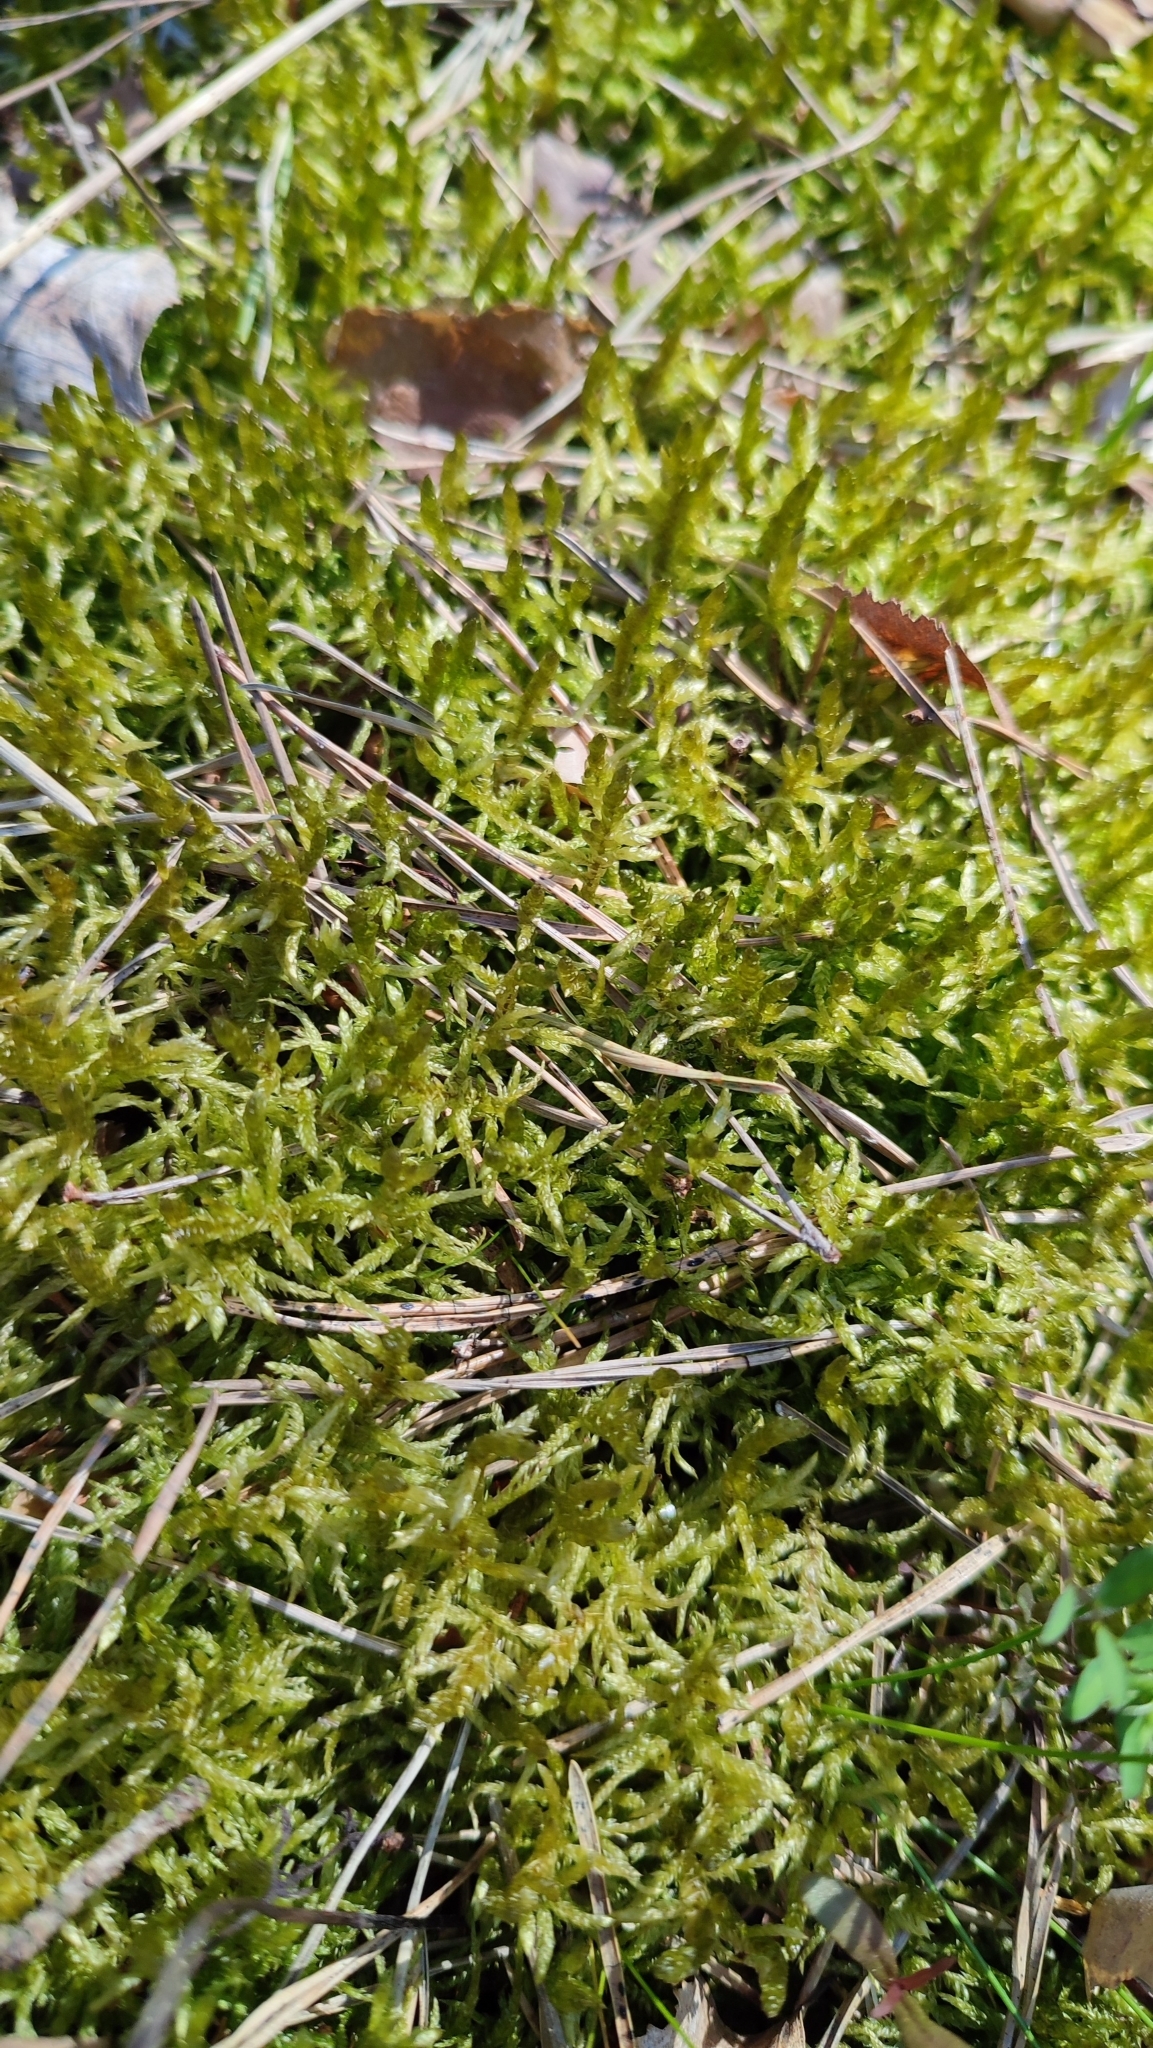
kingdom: Plantae
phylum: Bryophyta
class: Bryopsida
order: Hypnales
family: Hylocomiaceae
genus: Pleurozium
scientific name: Pleurozium schreberi
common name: Red-stemmed feather moss
